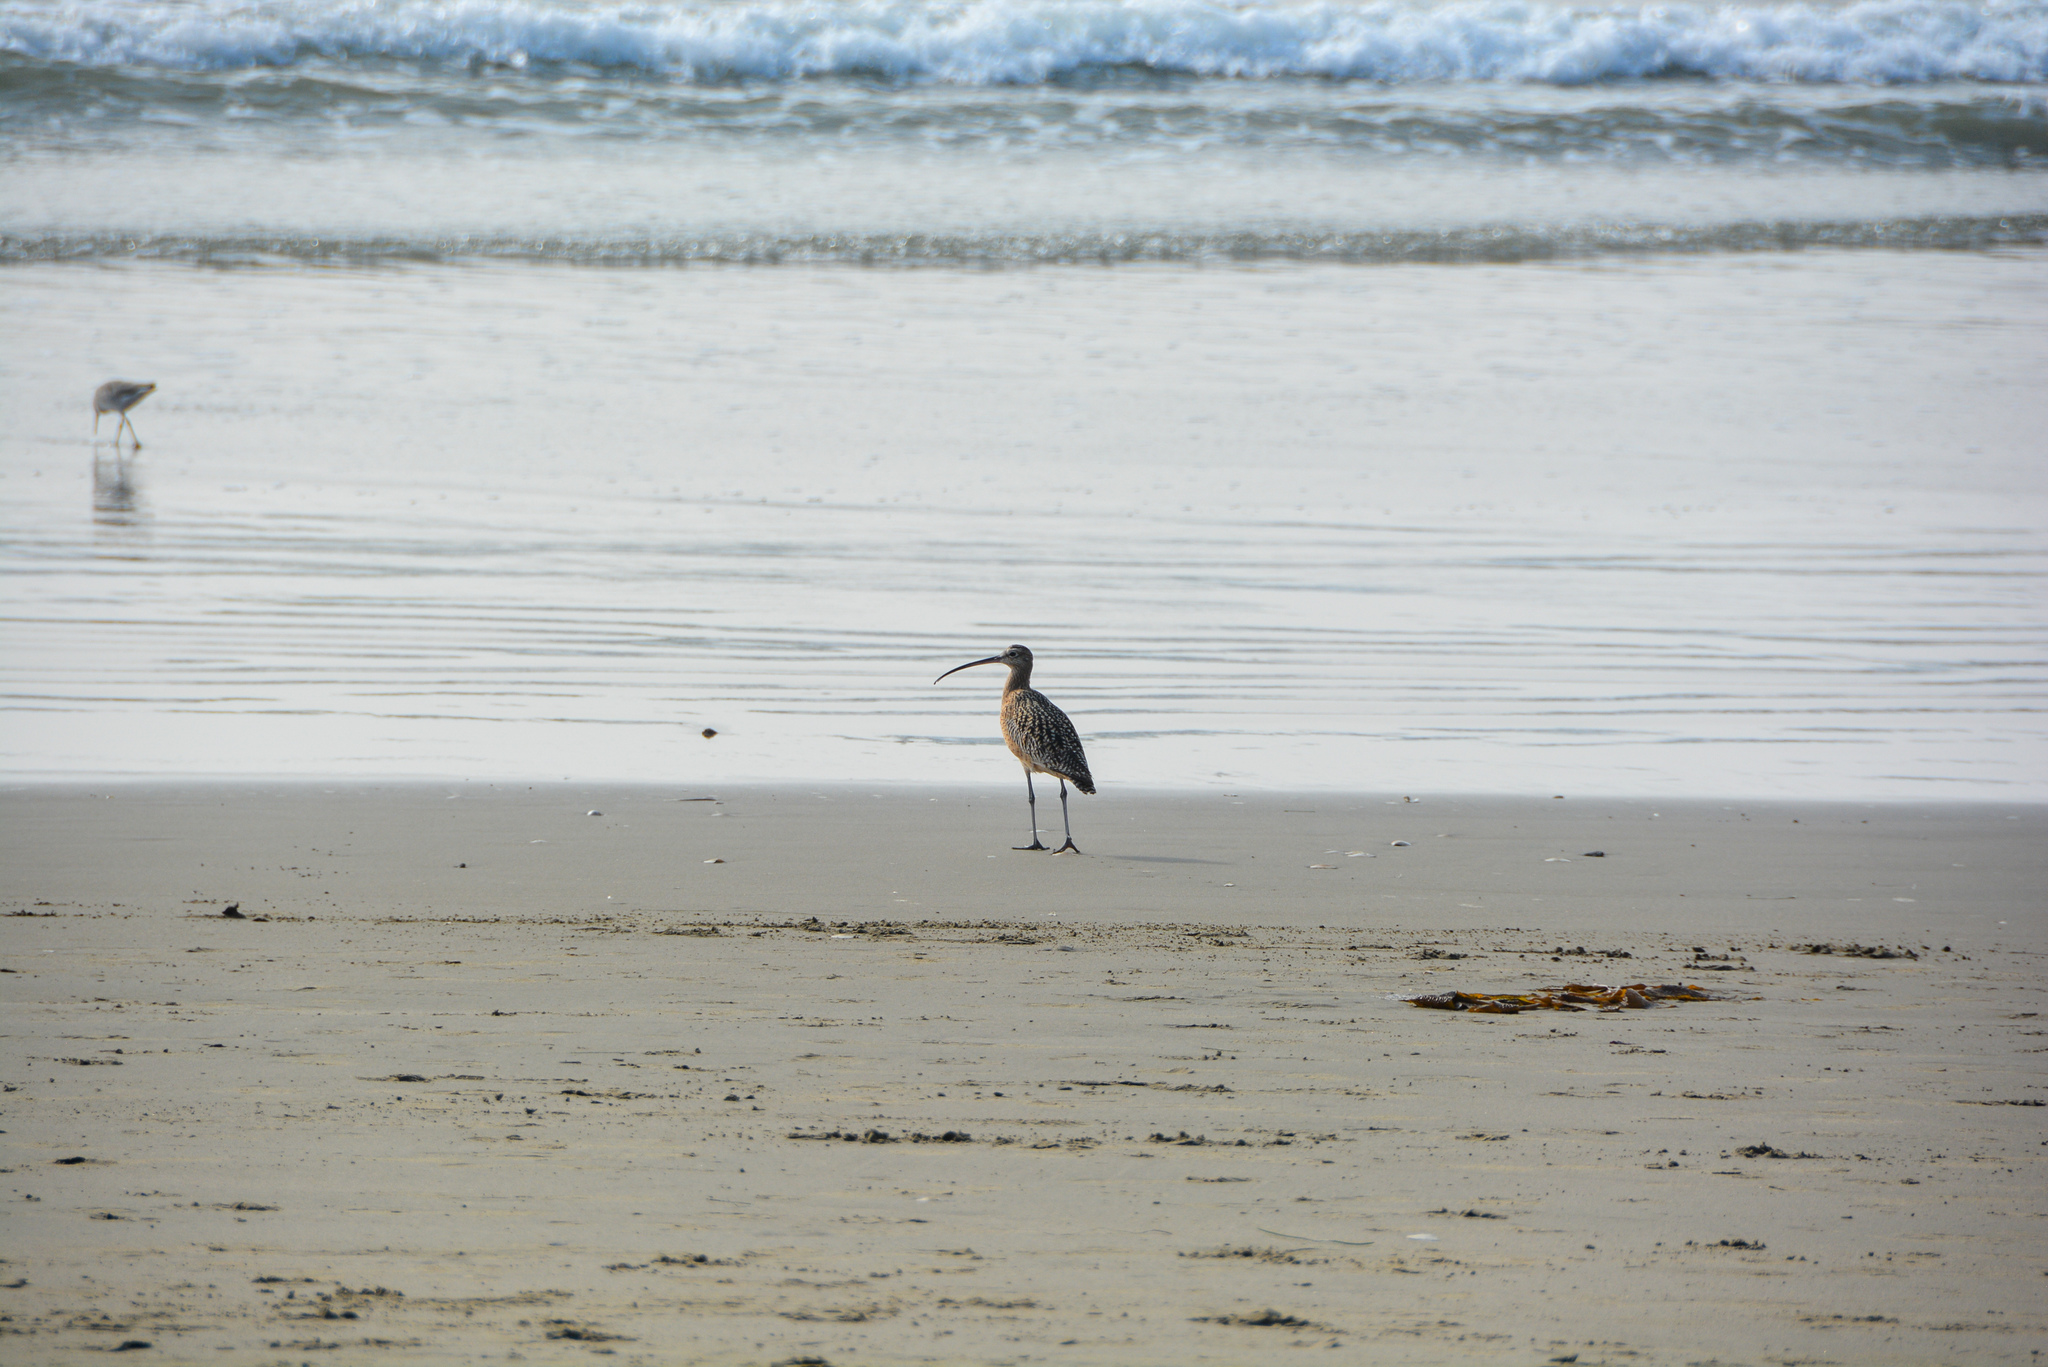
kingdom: Animalia
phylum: Chordata
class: Aves
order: Charadriiformes
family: Scolopacidae
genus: Numenius
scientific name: Numenius americanus
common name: Long-billed curlew
